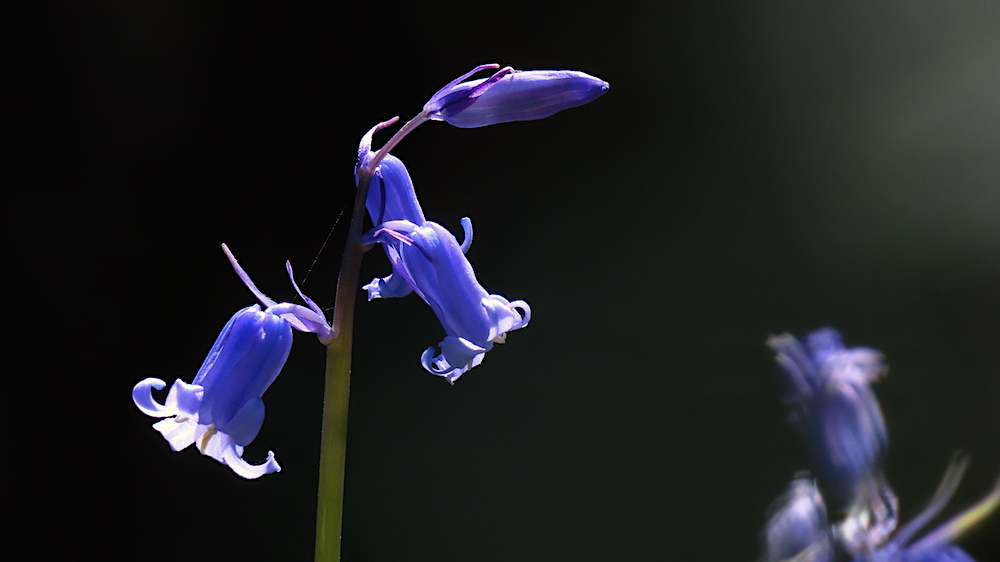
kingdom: Plantae
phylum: Tracheophyta
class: Liliopsida
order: Asparagales
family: Asparagaceae
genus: Hyacinthoides
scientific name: Hyacinthoides non-scripta
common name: Bluebell
